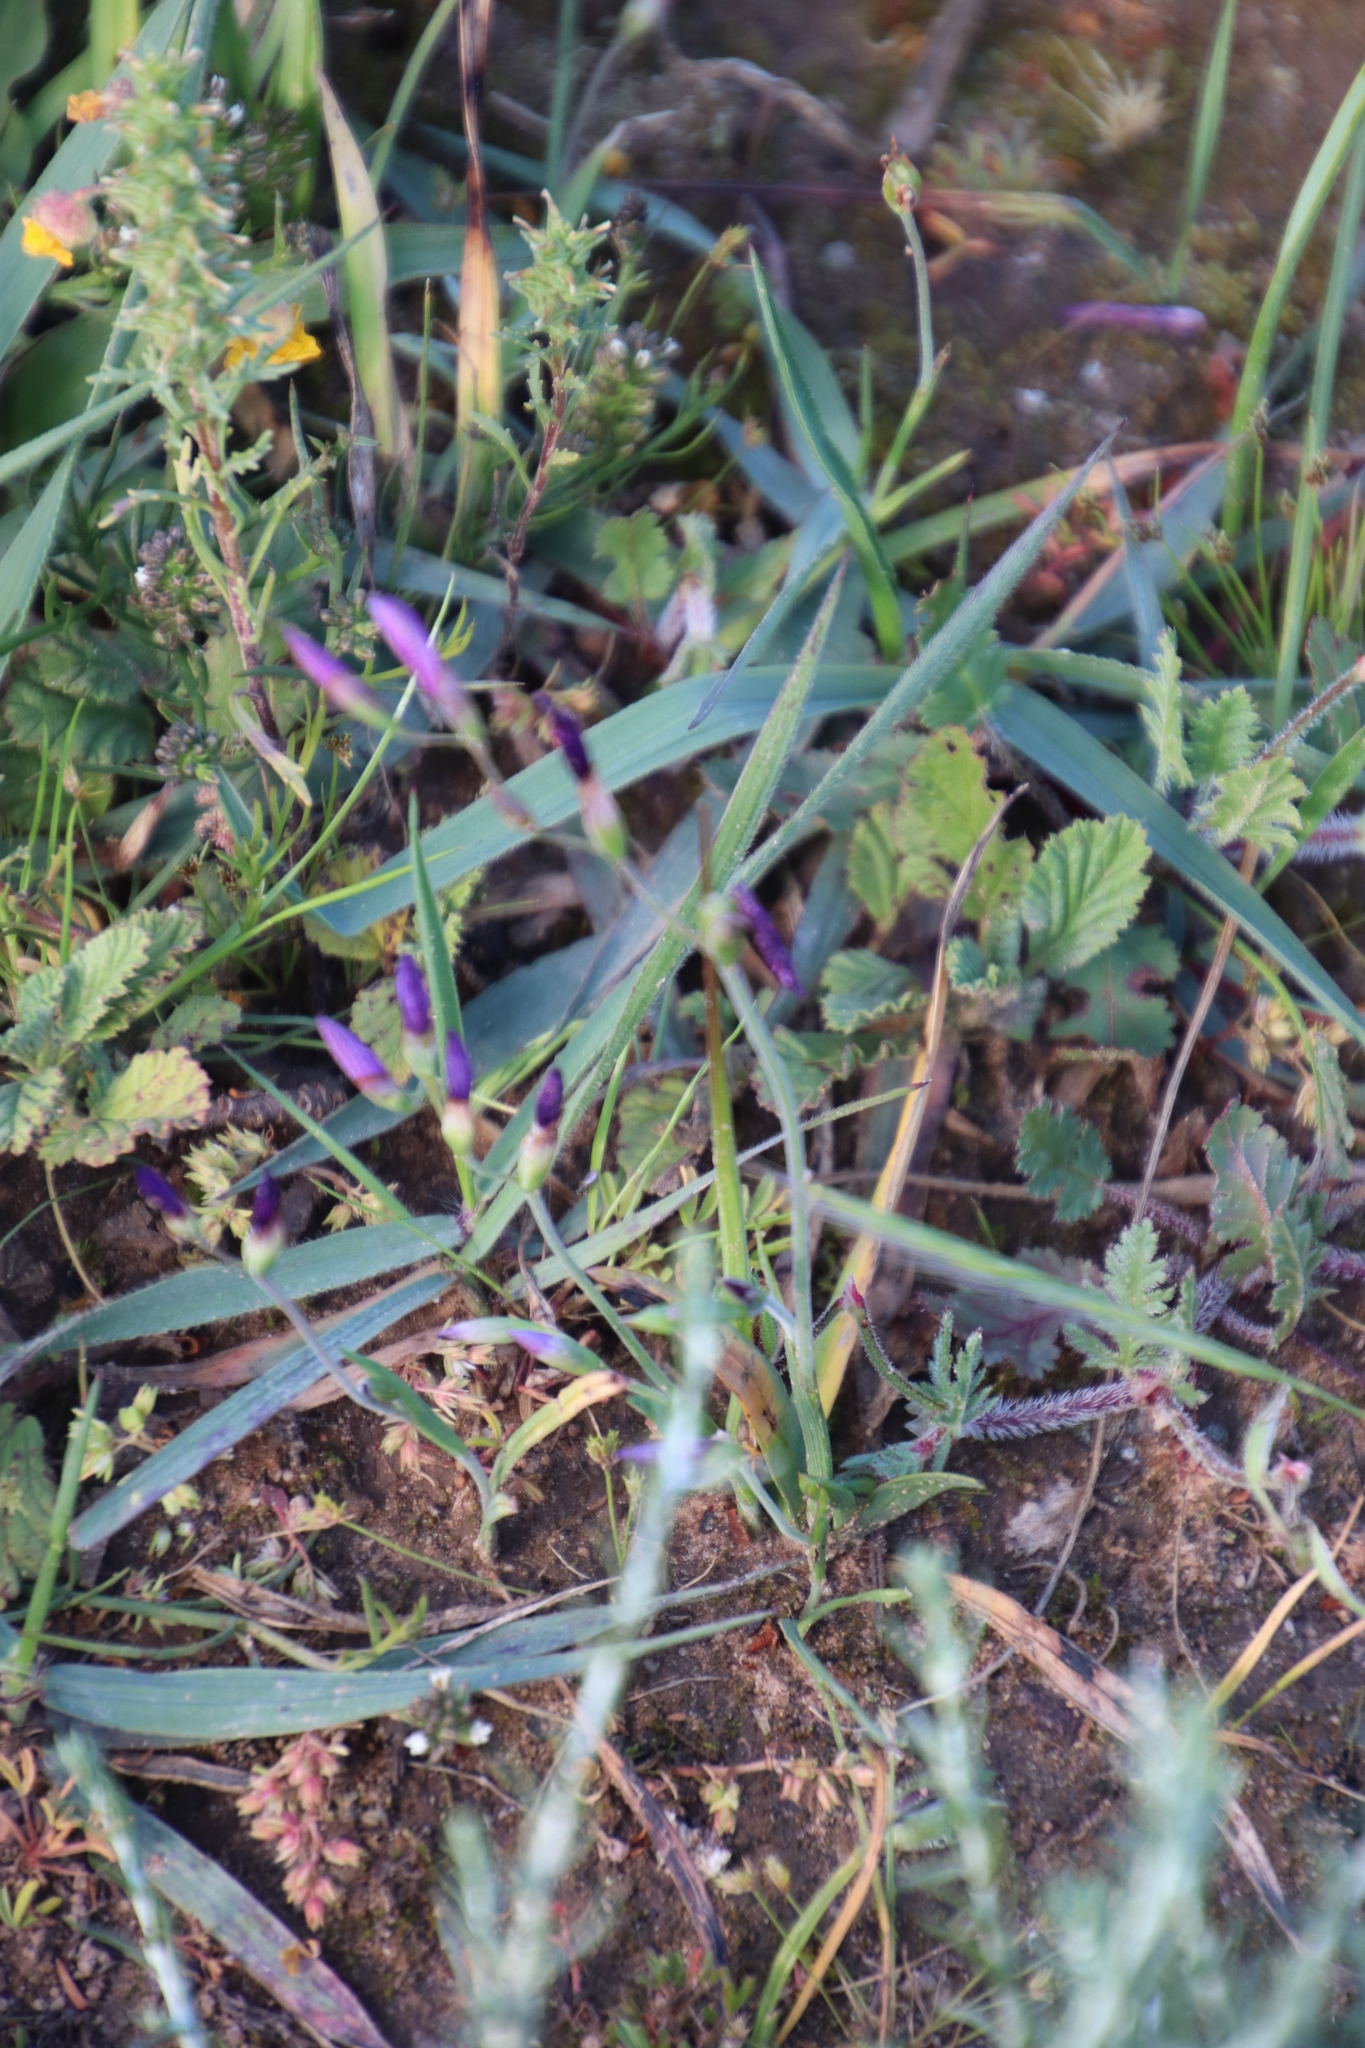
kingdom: Plantae
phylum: Tracheophyta
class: Liliopsida
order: Asparagales
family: Iridaceae
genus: Geissorhiza
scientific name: Geissorhiza aspera
